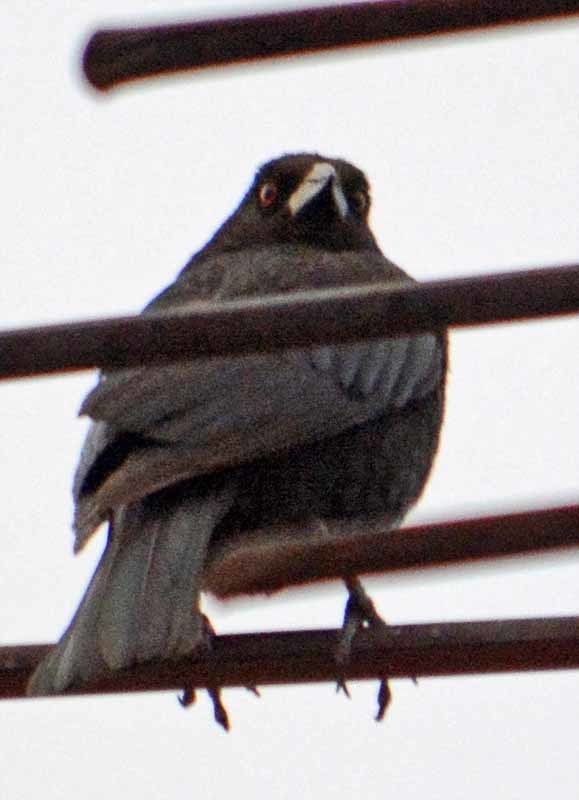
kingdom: Animalia
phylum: Chordata
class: Aves
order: Passeriformes
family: Icteridae
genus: Molothrus
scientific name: Molothrus aeneus
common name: Bronzed cowbird
